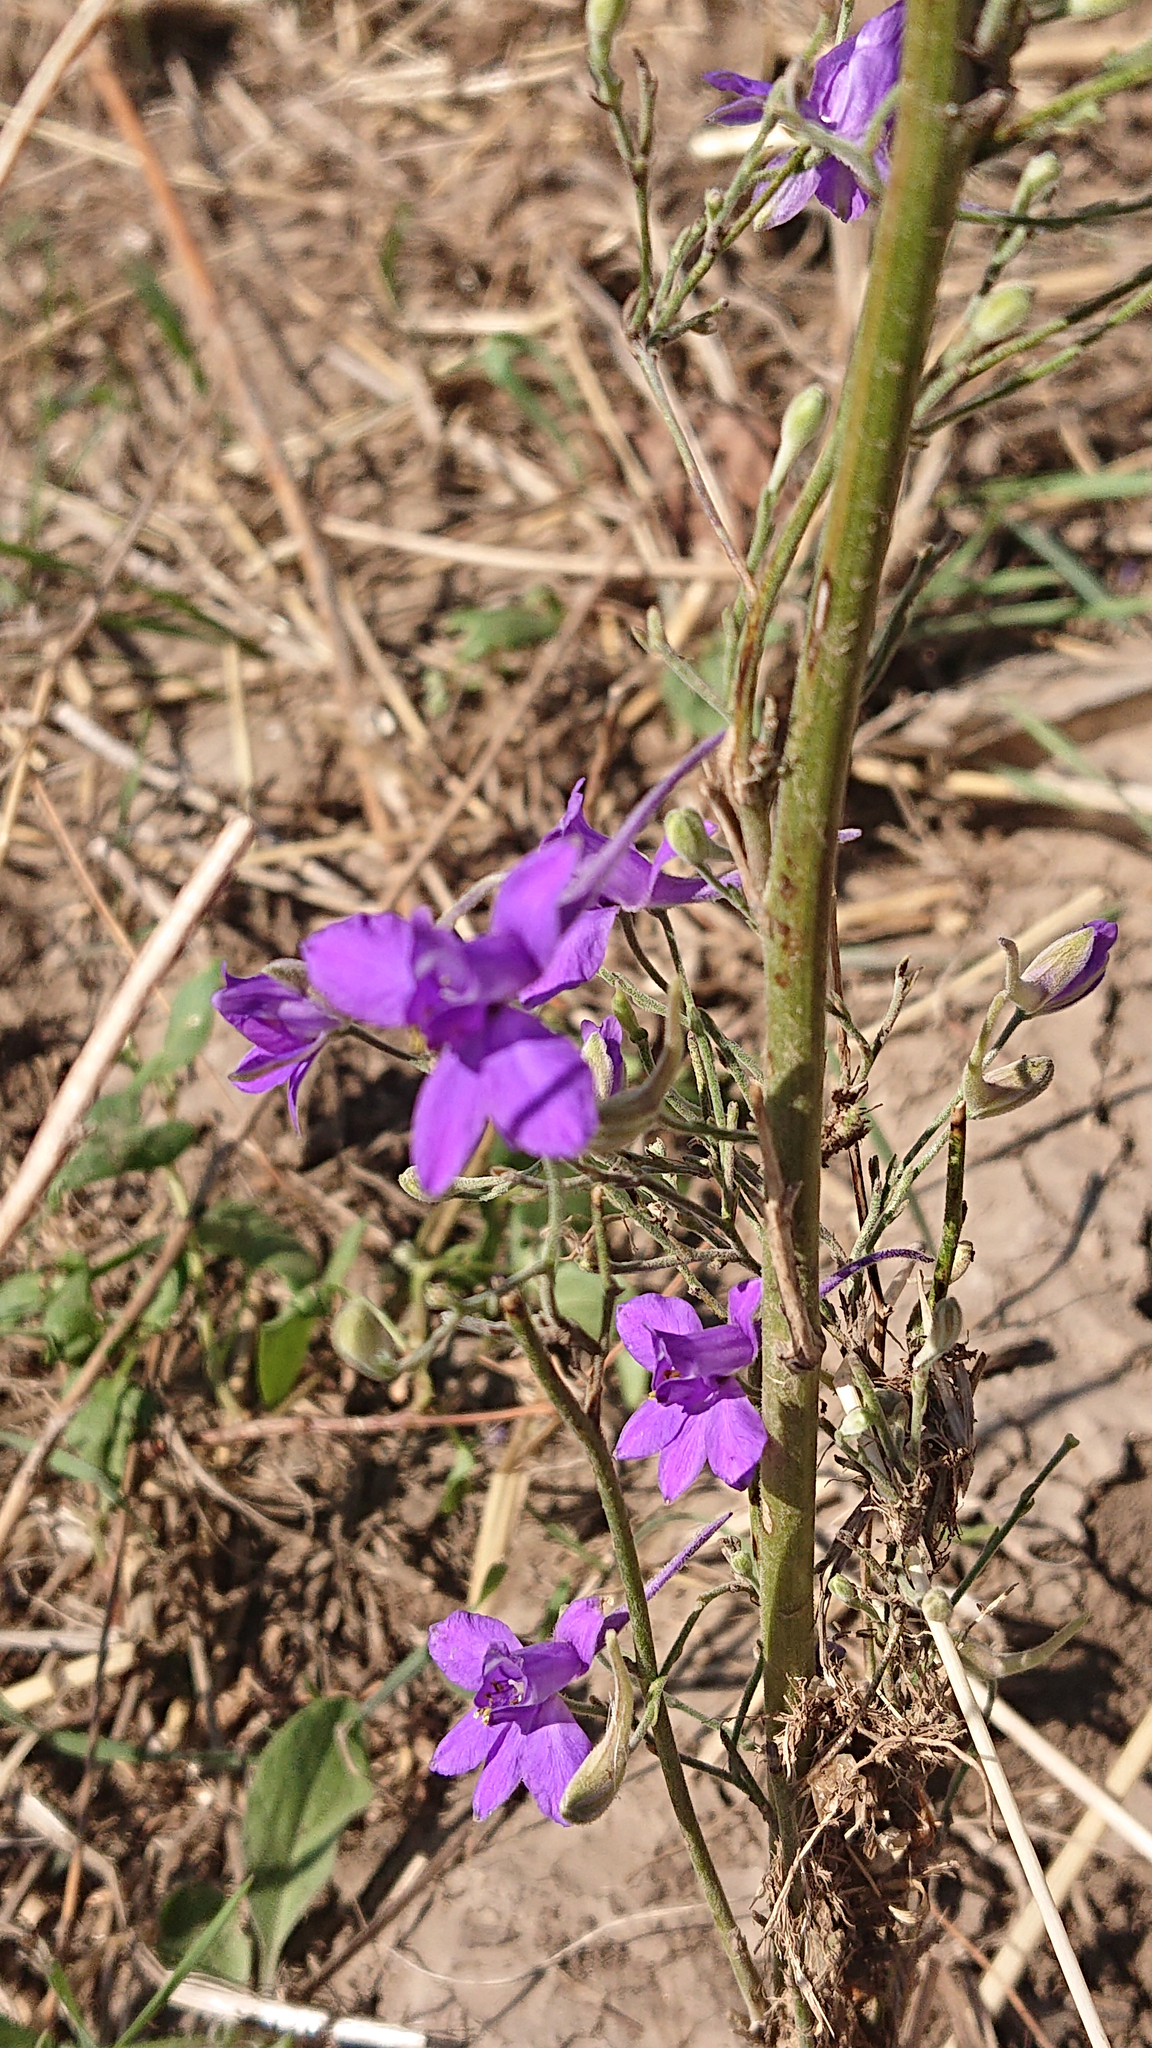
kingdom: Plantae
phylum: Tracheophyta
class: Magnoliopsida
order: Ranunculales
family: Ranunculaceae
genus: Delphinium
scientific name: Delphinium consolida
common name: Branching larkspur
